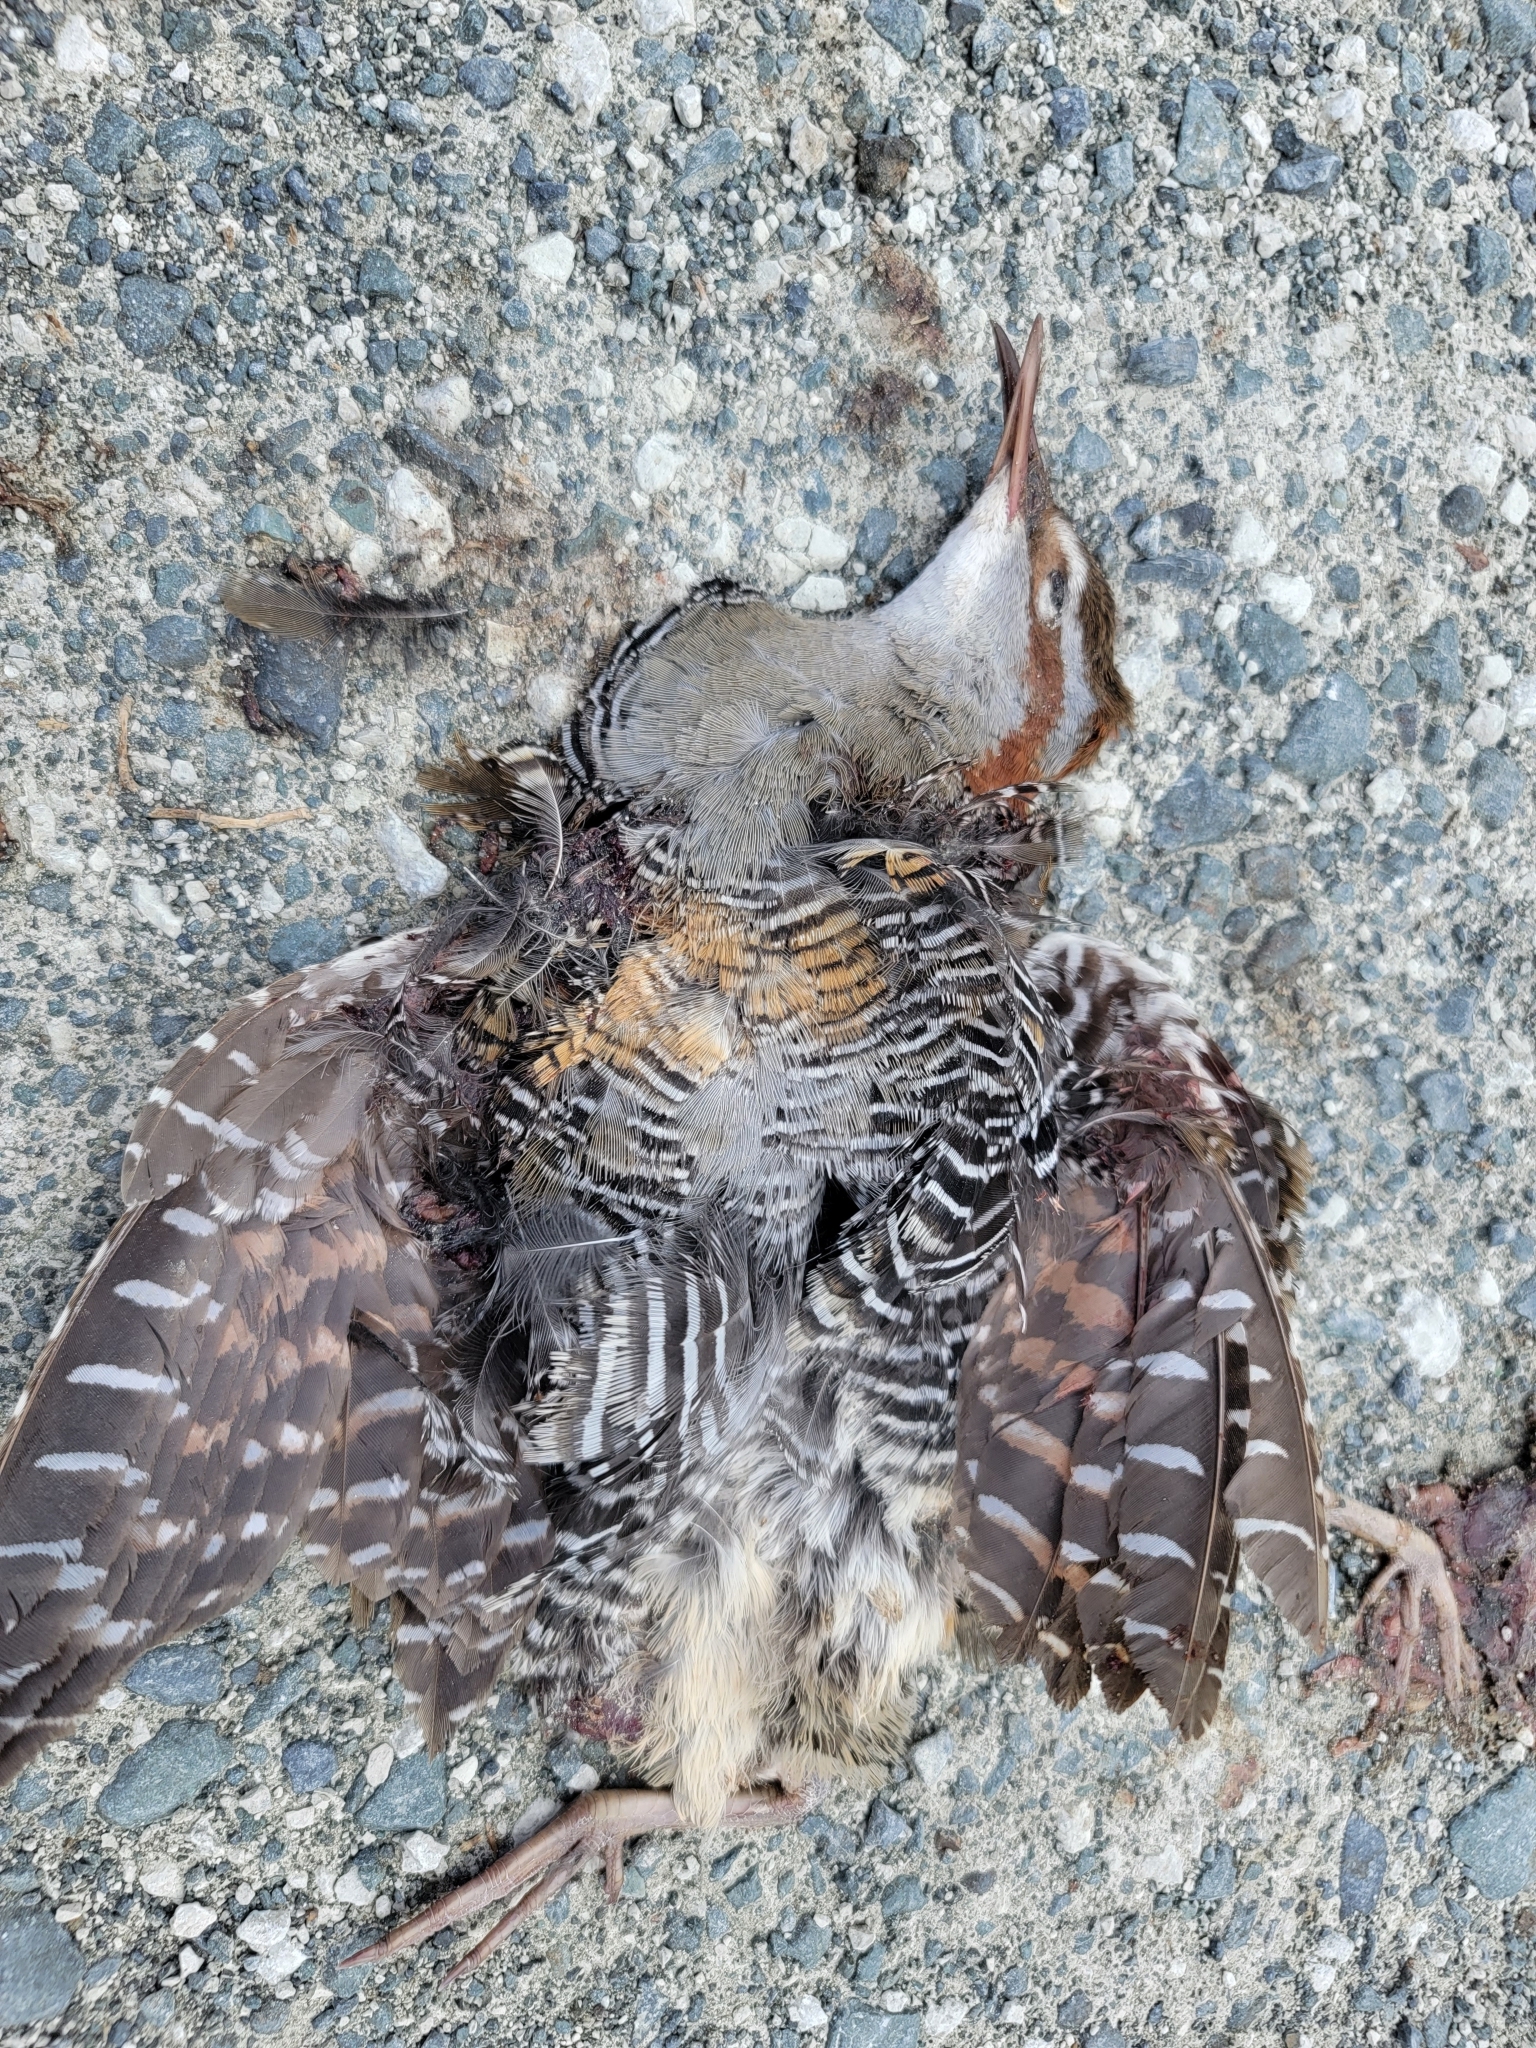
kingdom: Animalia
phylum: Chordata
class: Aves
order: Gruiformes
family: Rallidae
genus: Gallirallus
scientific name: Gallirallus philippensis
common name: Buff-banded rail
